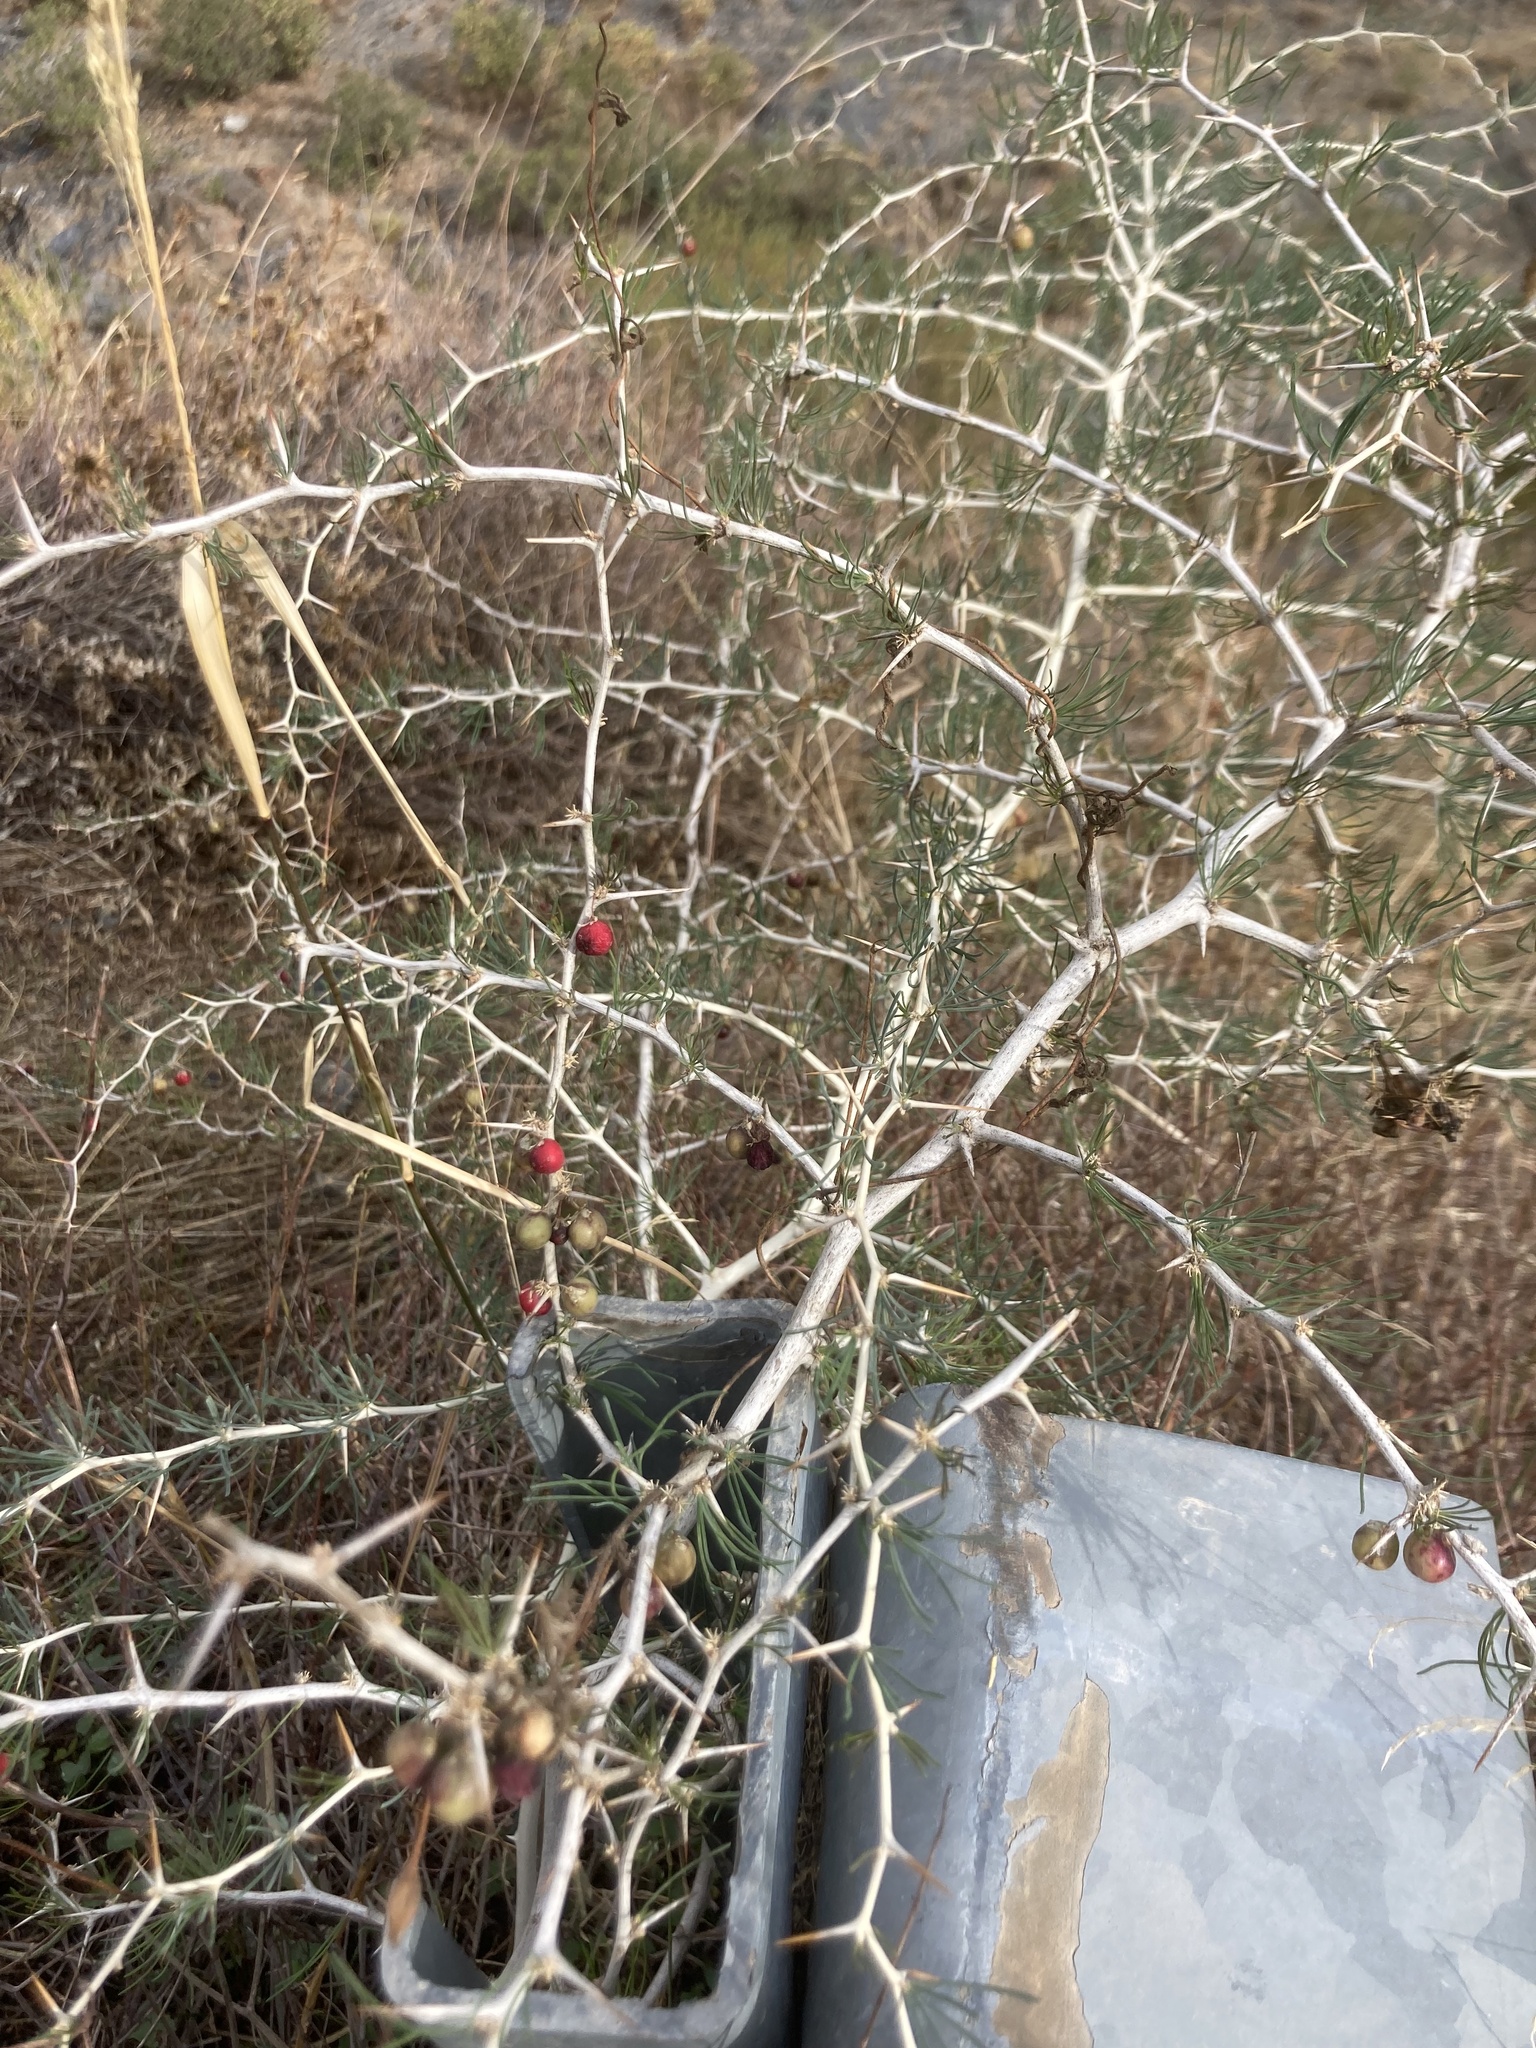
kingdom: Plantae
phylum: Tracheophyta
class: Liliopsida
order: Asparagales
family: Asparagaceae
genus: Asparagus
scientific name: Asparagus albus
